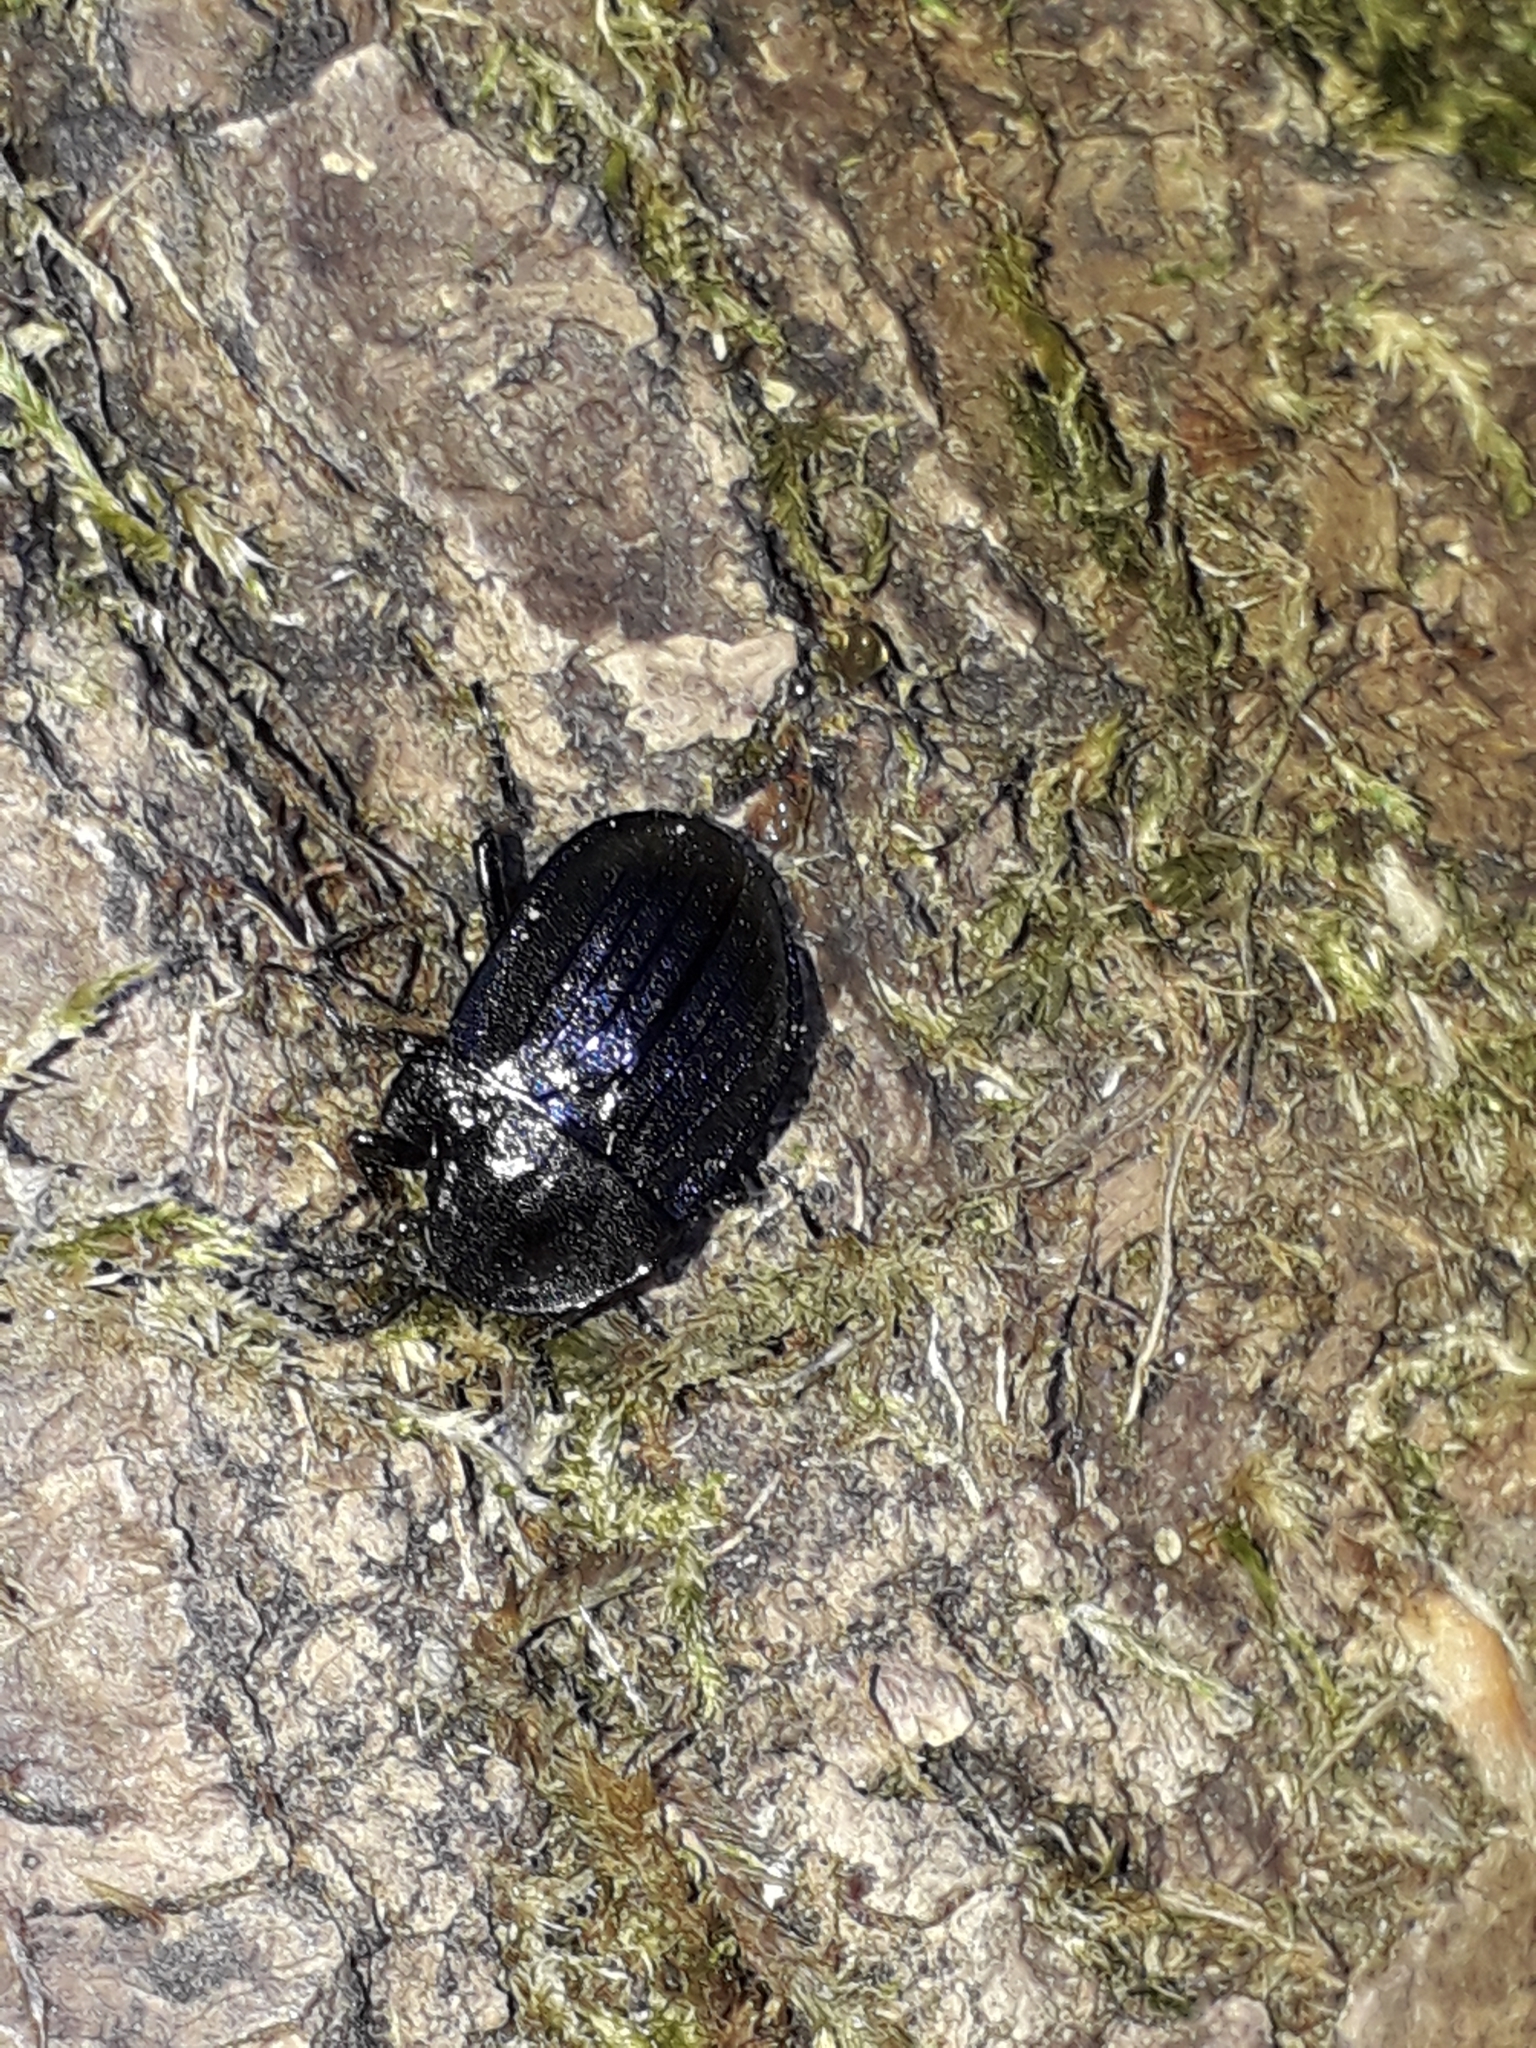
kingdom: Animalia
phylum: Arthropoda
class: Insecta
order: Coleoptera
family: Staphylinidae
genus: Silpha
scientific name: Silpha atrata
